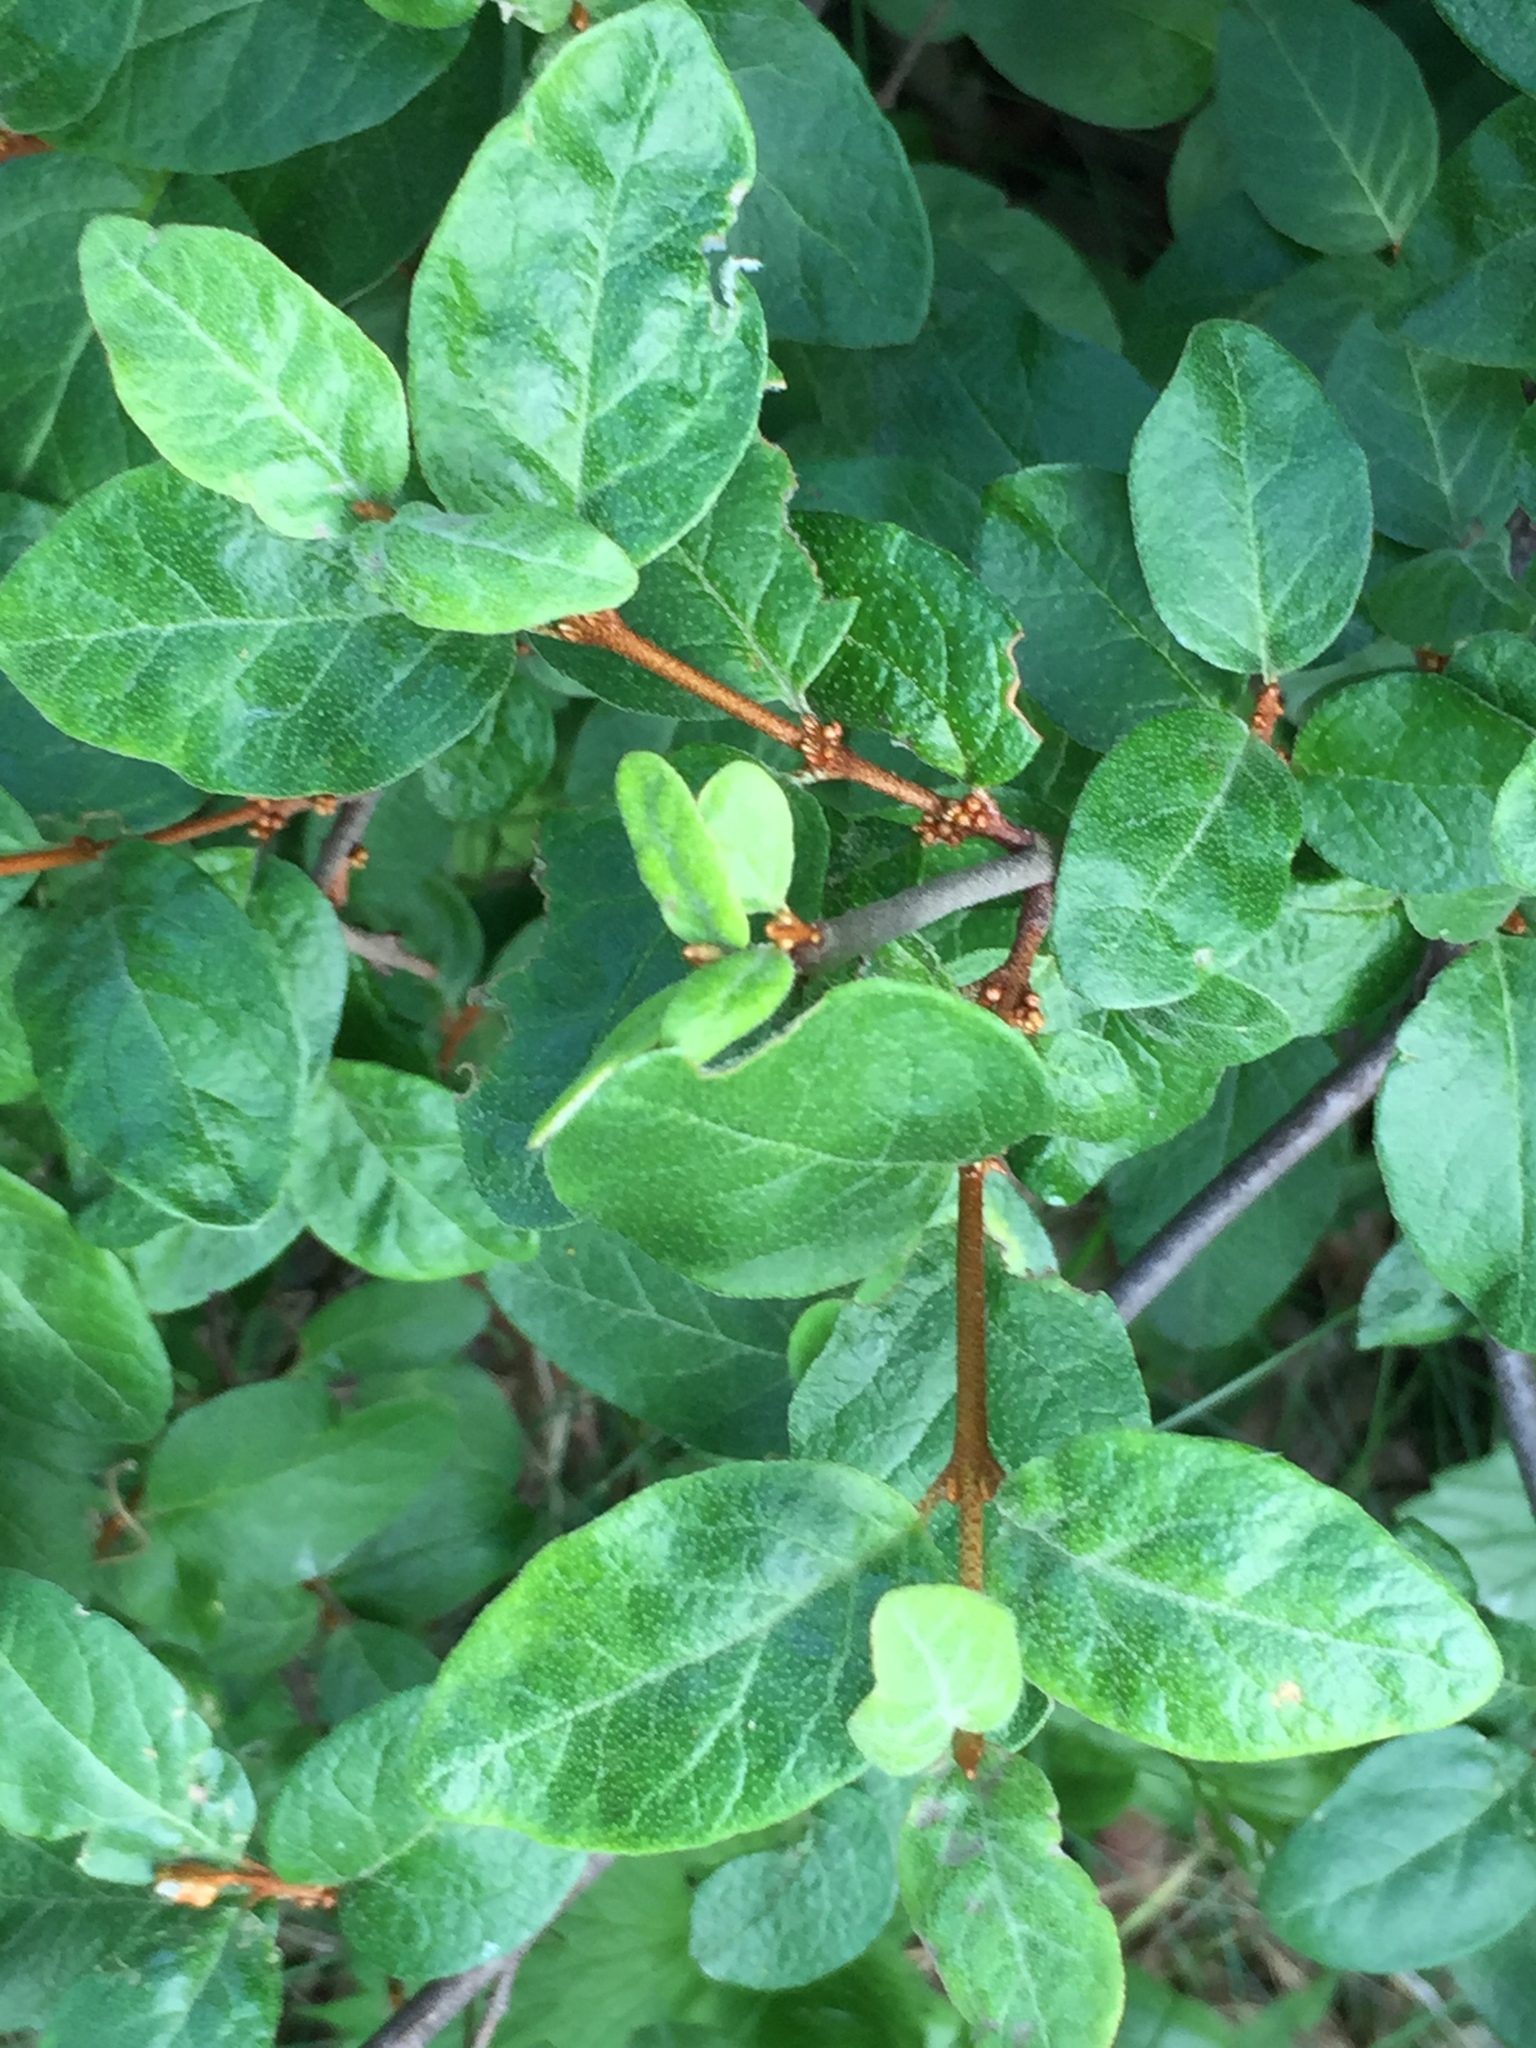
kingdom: Plantae
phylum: Tracheophyta
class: Magnoliopsida
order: Rosales
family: Elaeagnaceae
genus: Shepherdia
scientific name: Shepherdia canadensis
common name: Soapberry
